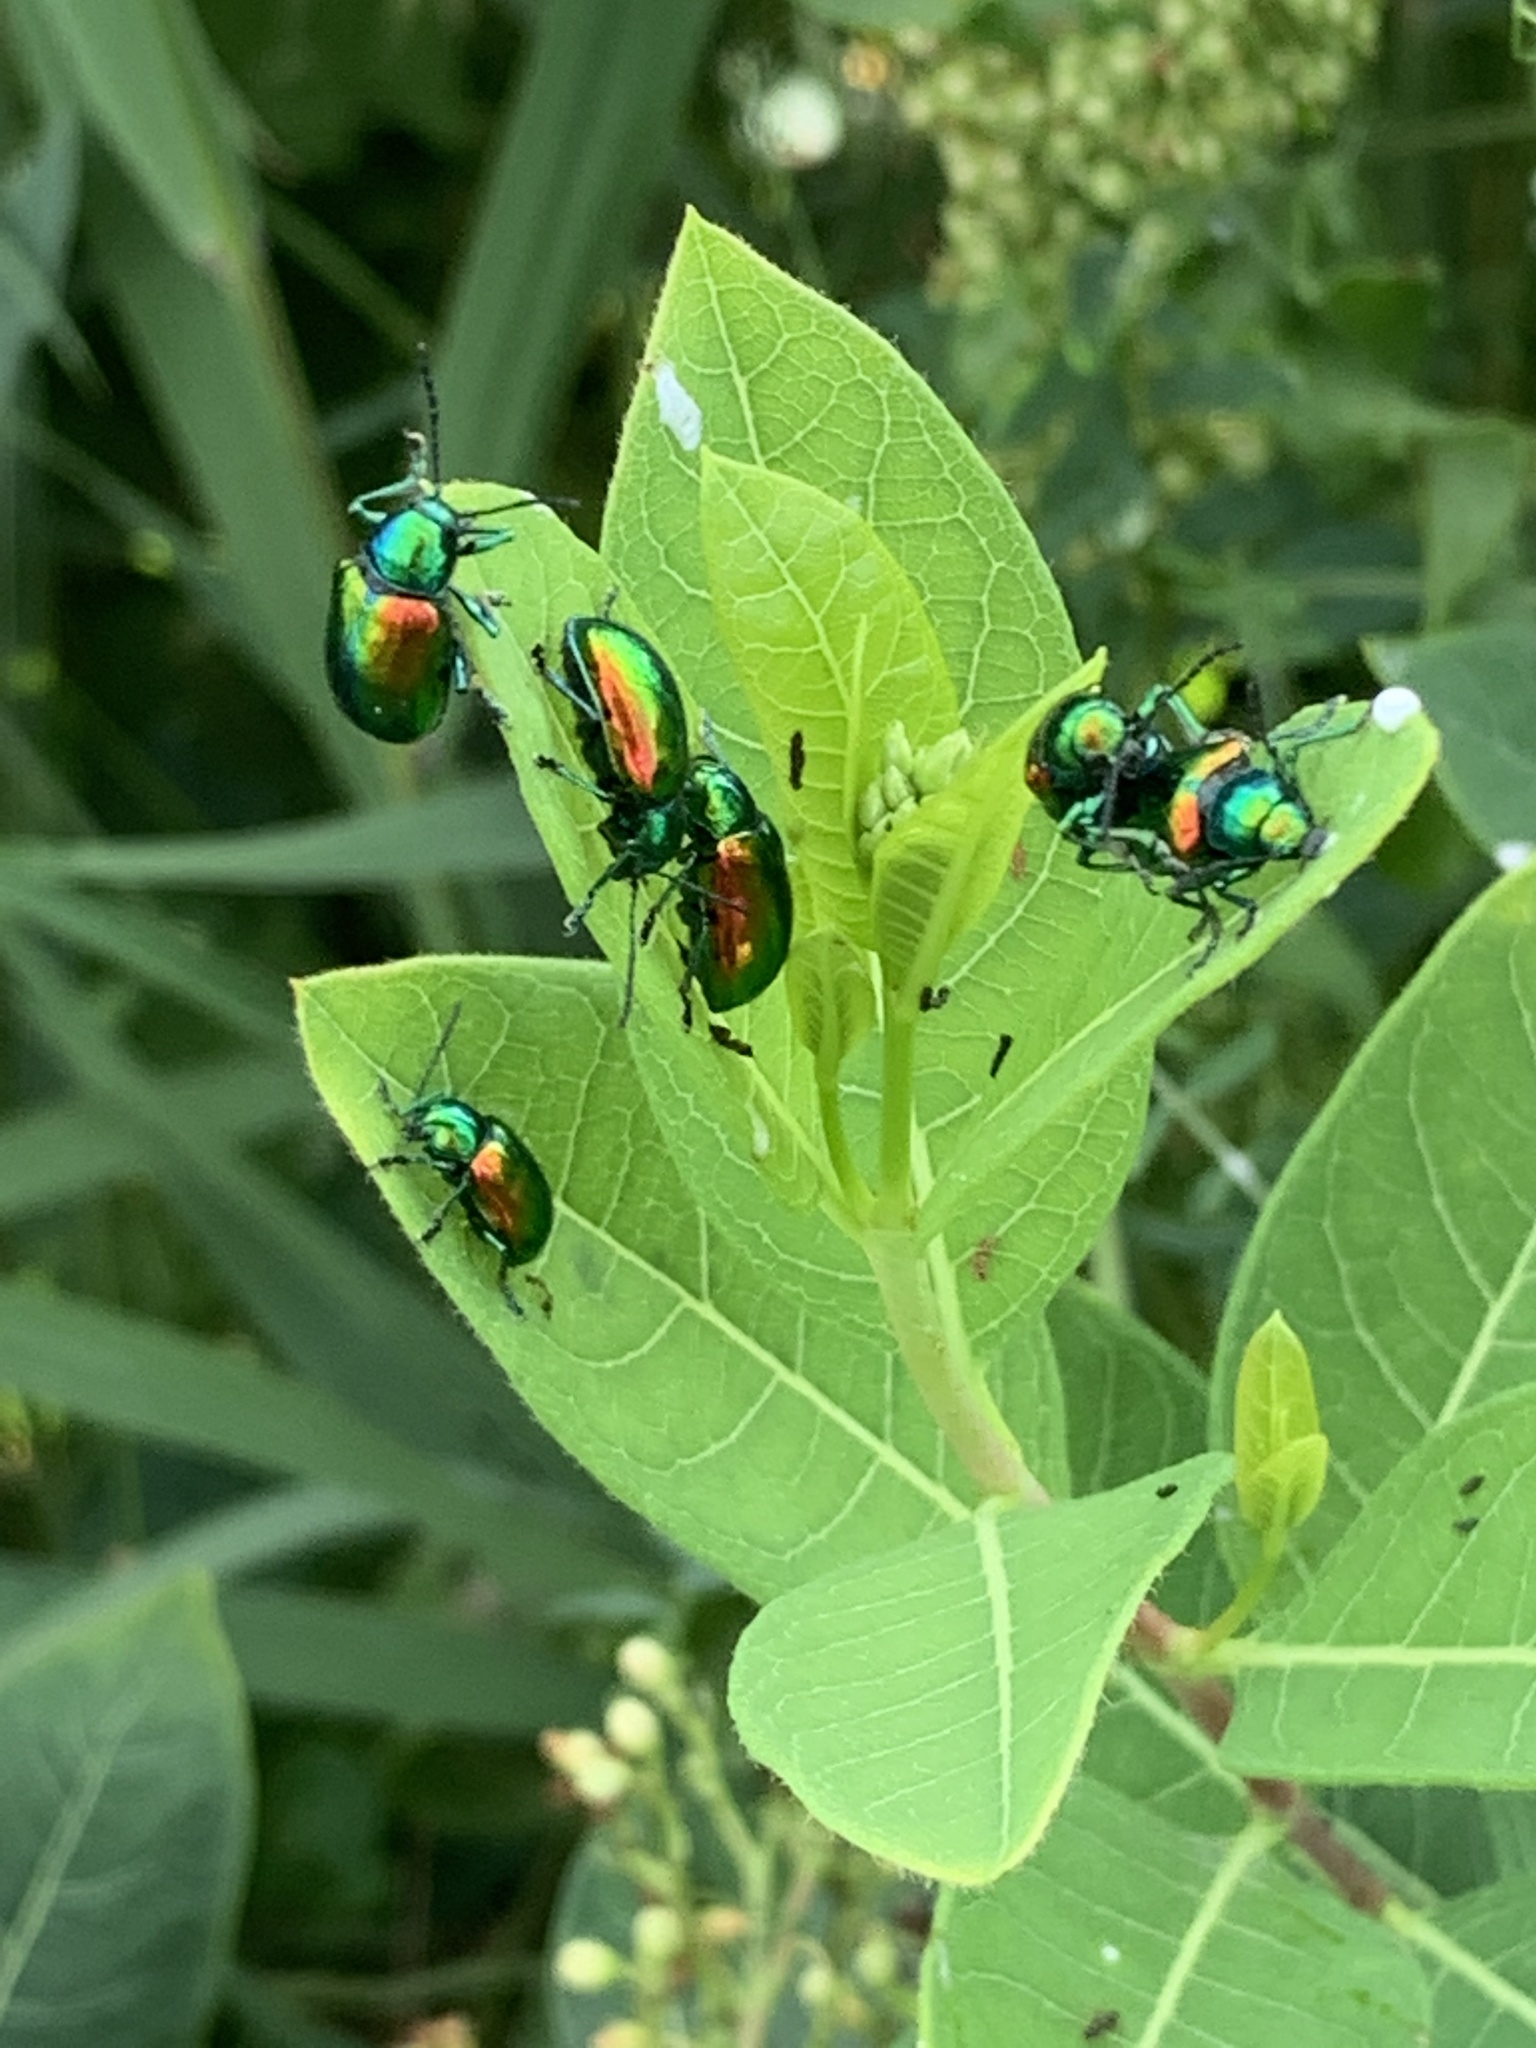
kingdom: Animalia
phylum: Arthropoda
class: Insecta
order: Coleoptera
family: Chrysomelidae
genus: Chrysochus
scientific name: Chrysochus auratus
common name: Dogbane leaf beetle
